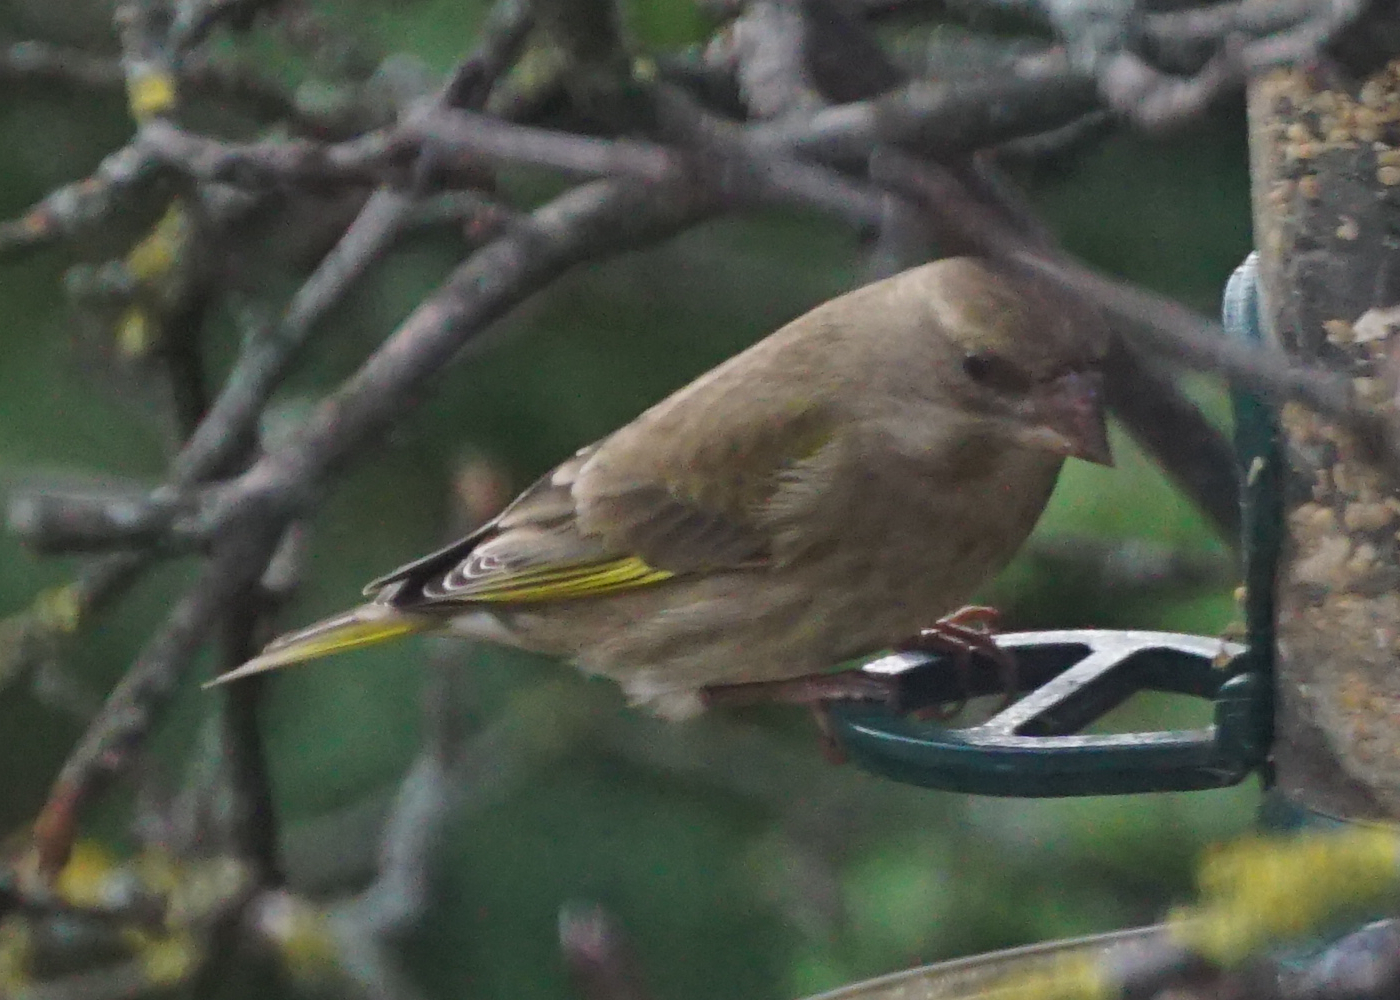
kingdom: Plantae
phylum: Tracheophyta
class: Liliopsida
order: Poales
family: Poaceae
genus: Chloris
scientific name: Chloris chloris
